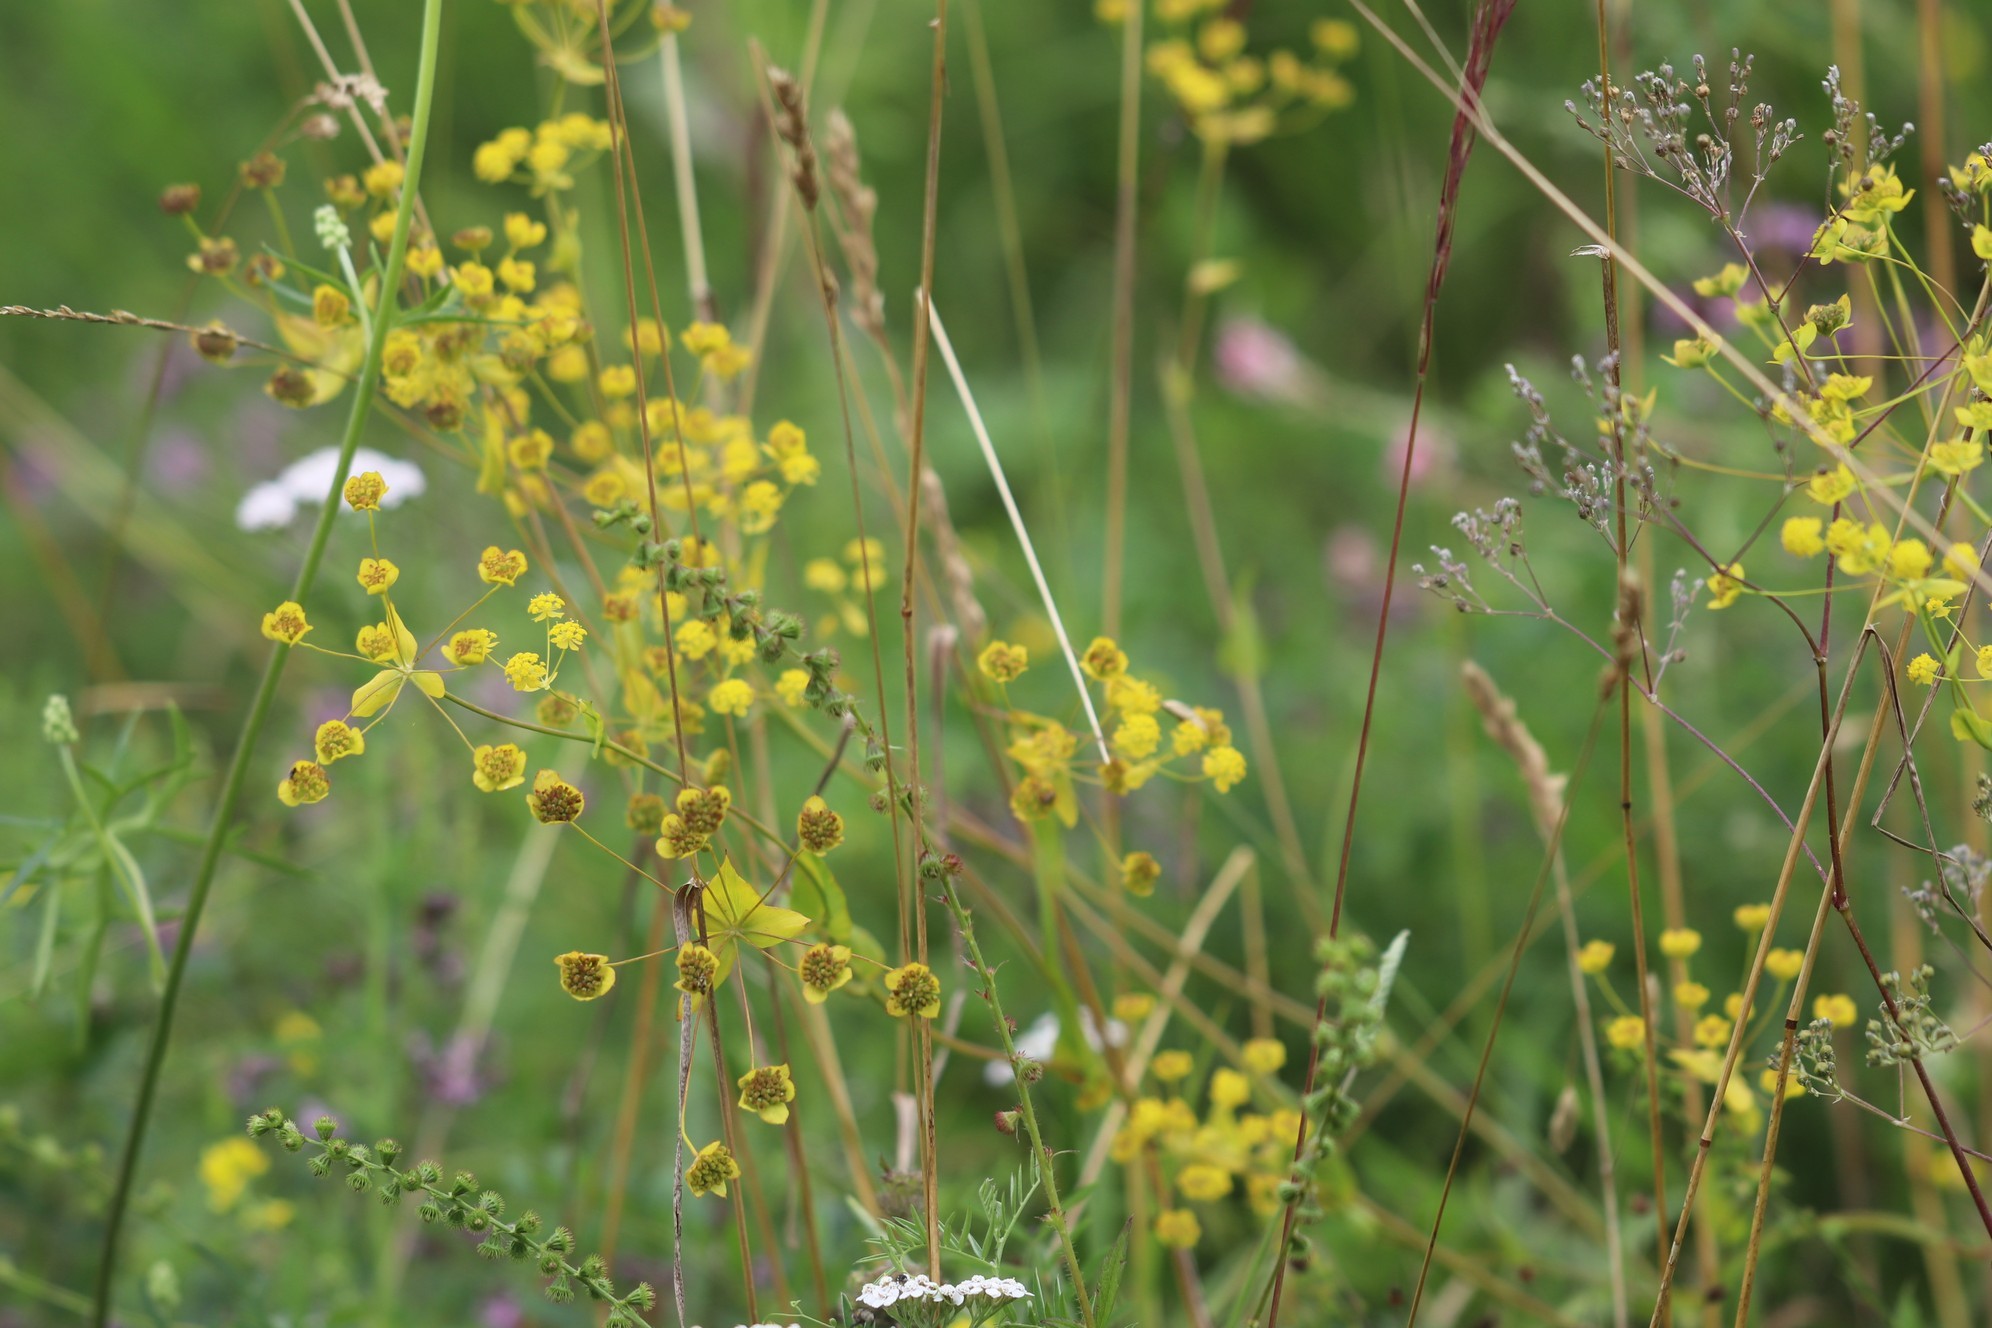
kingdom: Plantae
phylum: Tracheophyta
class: Magnoliopsida
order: Apiales
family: Apiaceae
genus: Bupleurum
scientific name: Bupleurum multinerve
